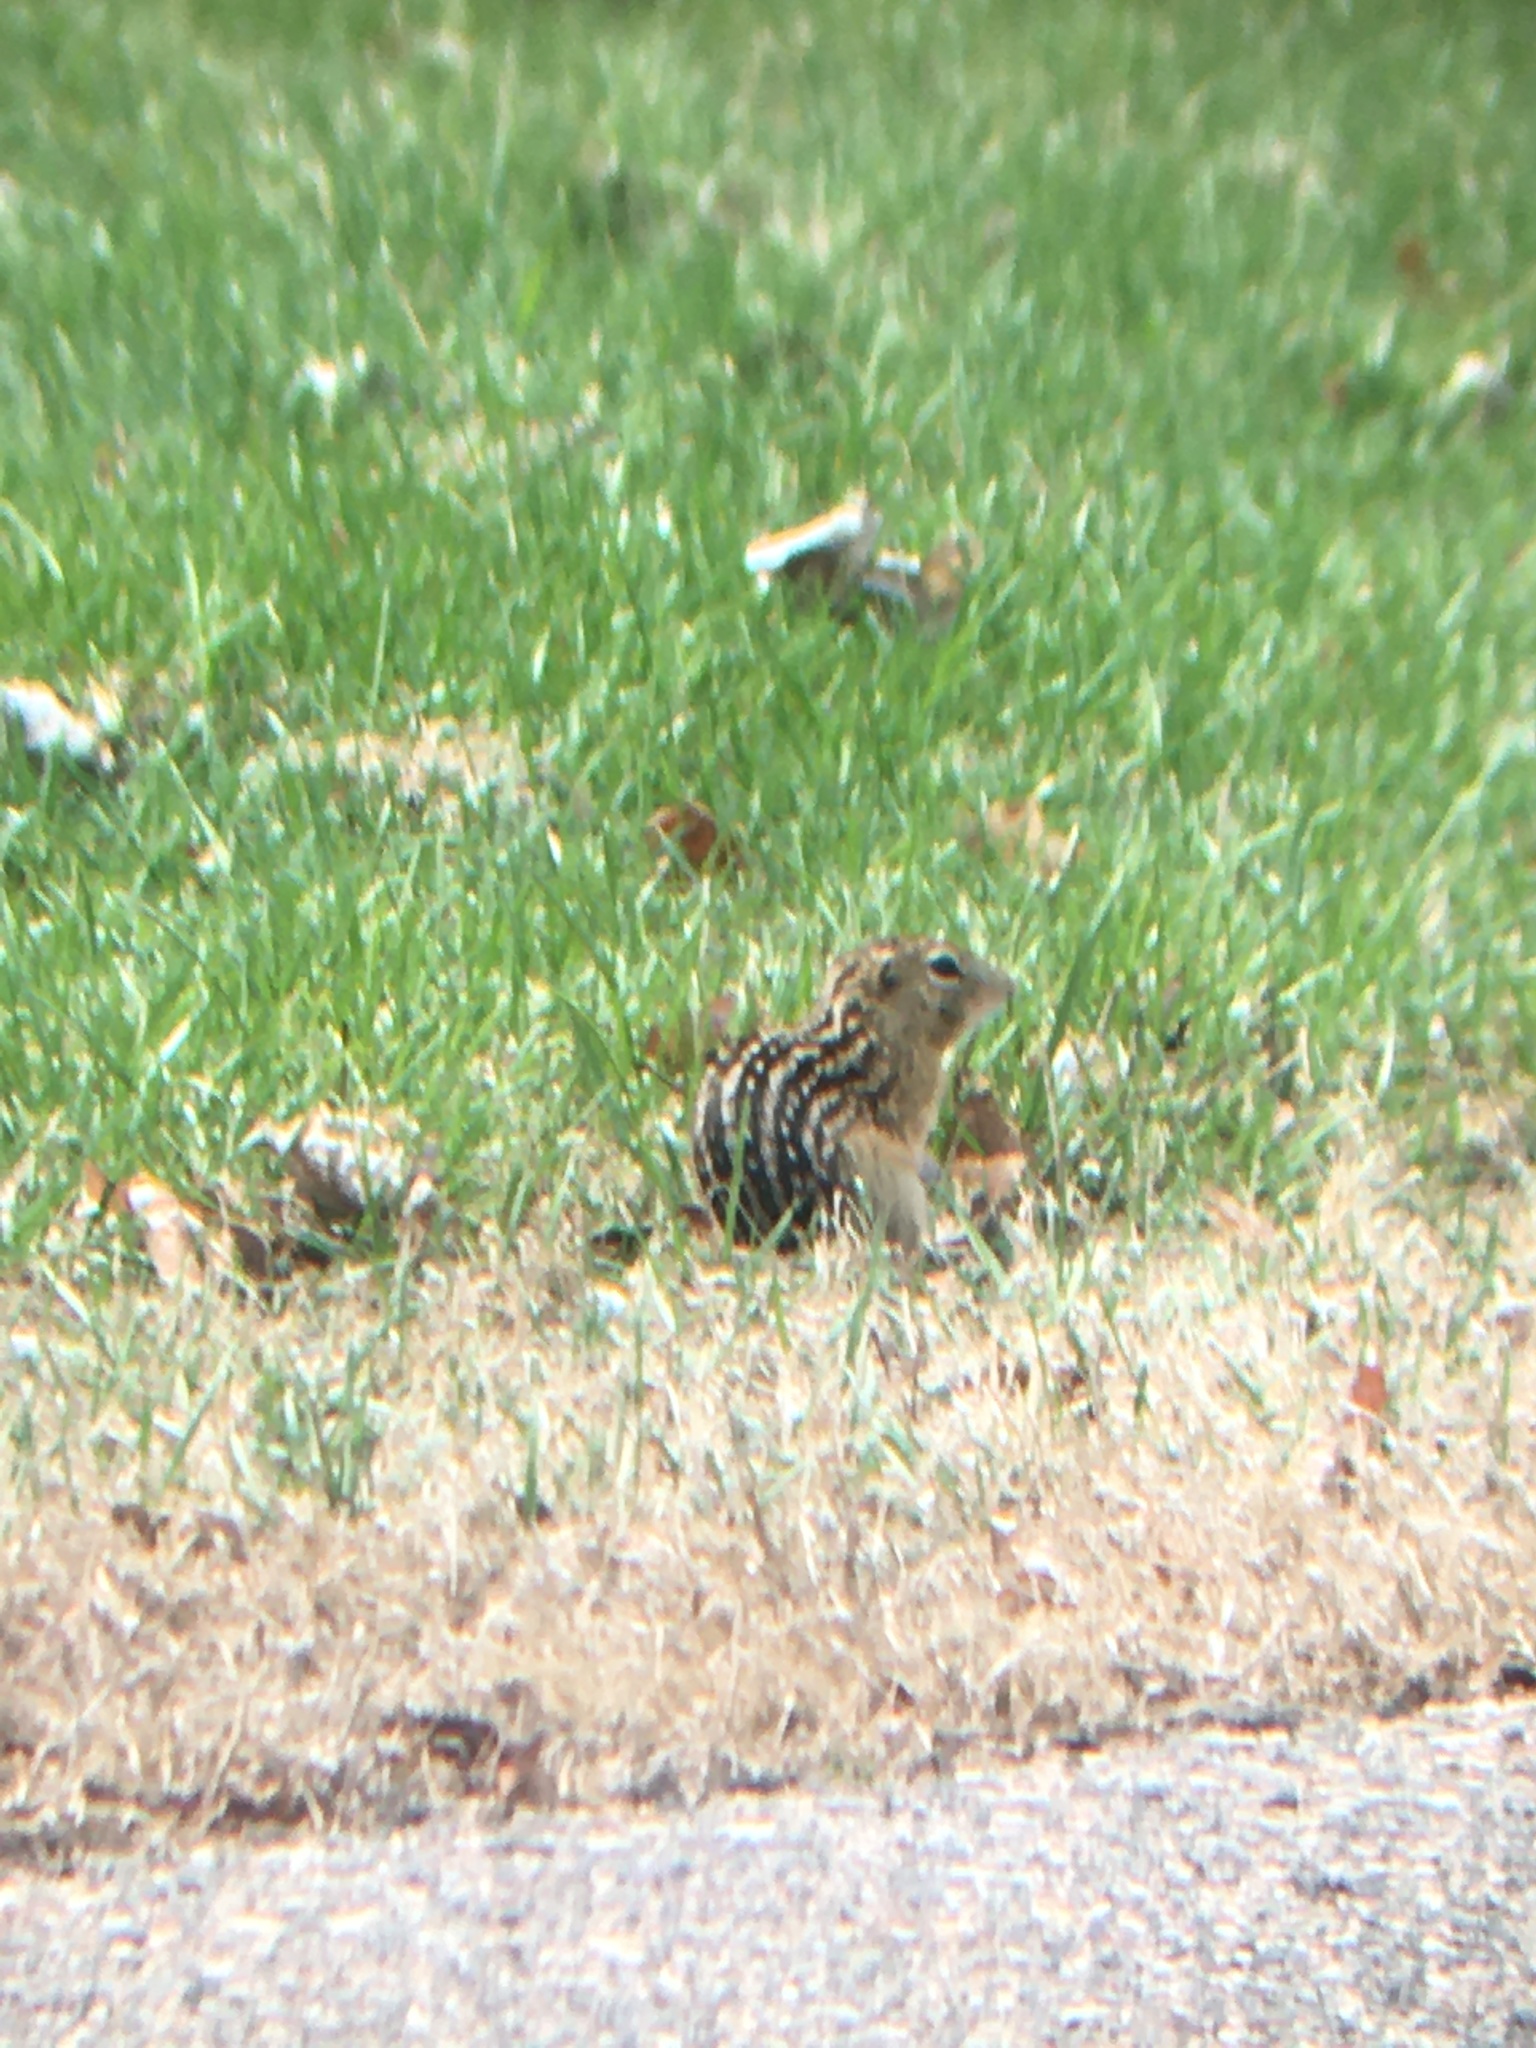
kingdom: Animalia
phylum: Chordata
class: Mammalia
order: Rodentia
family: Sciuridae
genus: Ictidomys
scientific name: Ictidomys tridecemlineatus
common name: Thirteen-lined ground squirrel
